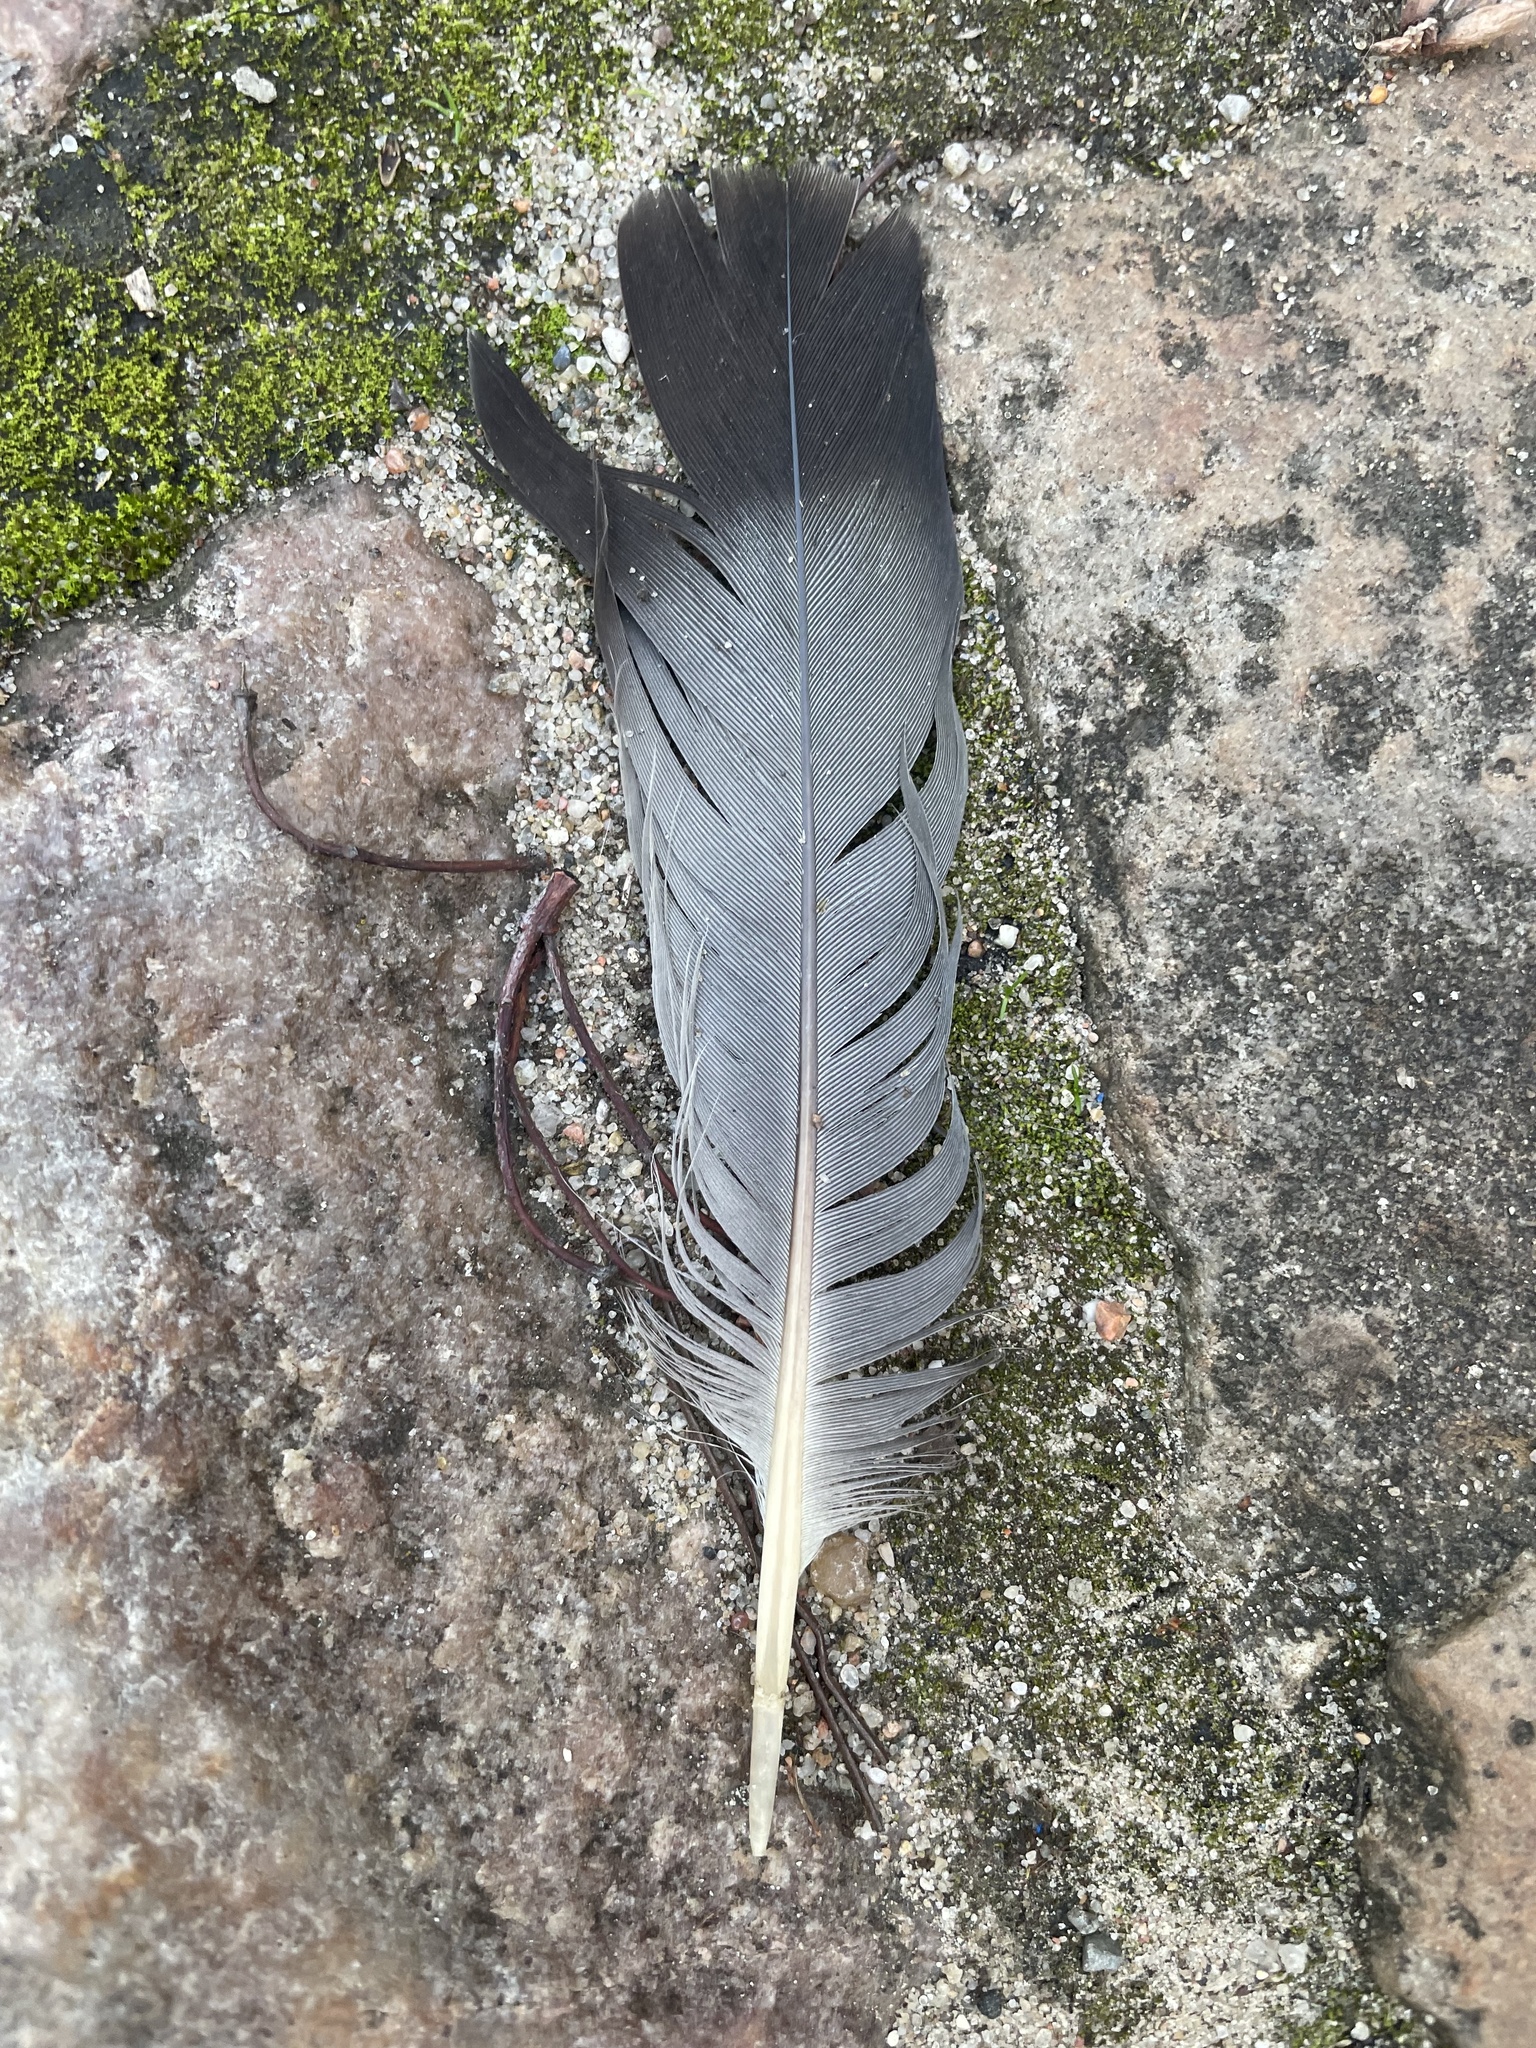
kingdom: Animalia
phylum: Chordata
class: Aves
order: Columbiformes
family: Columbidae
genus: Columba
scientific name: Columba livia
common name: Rock pigeon
